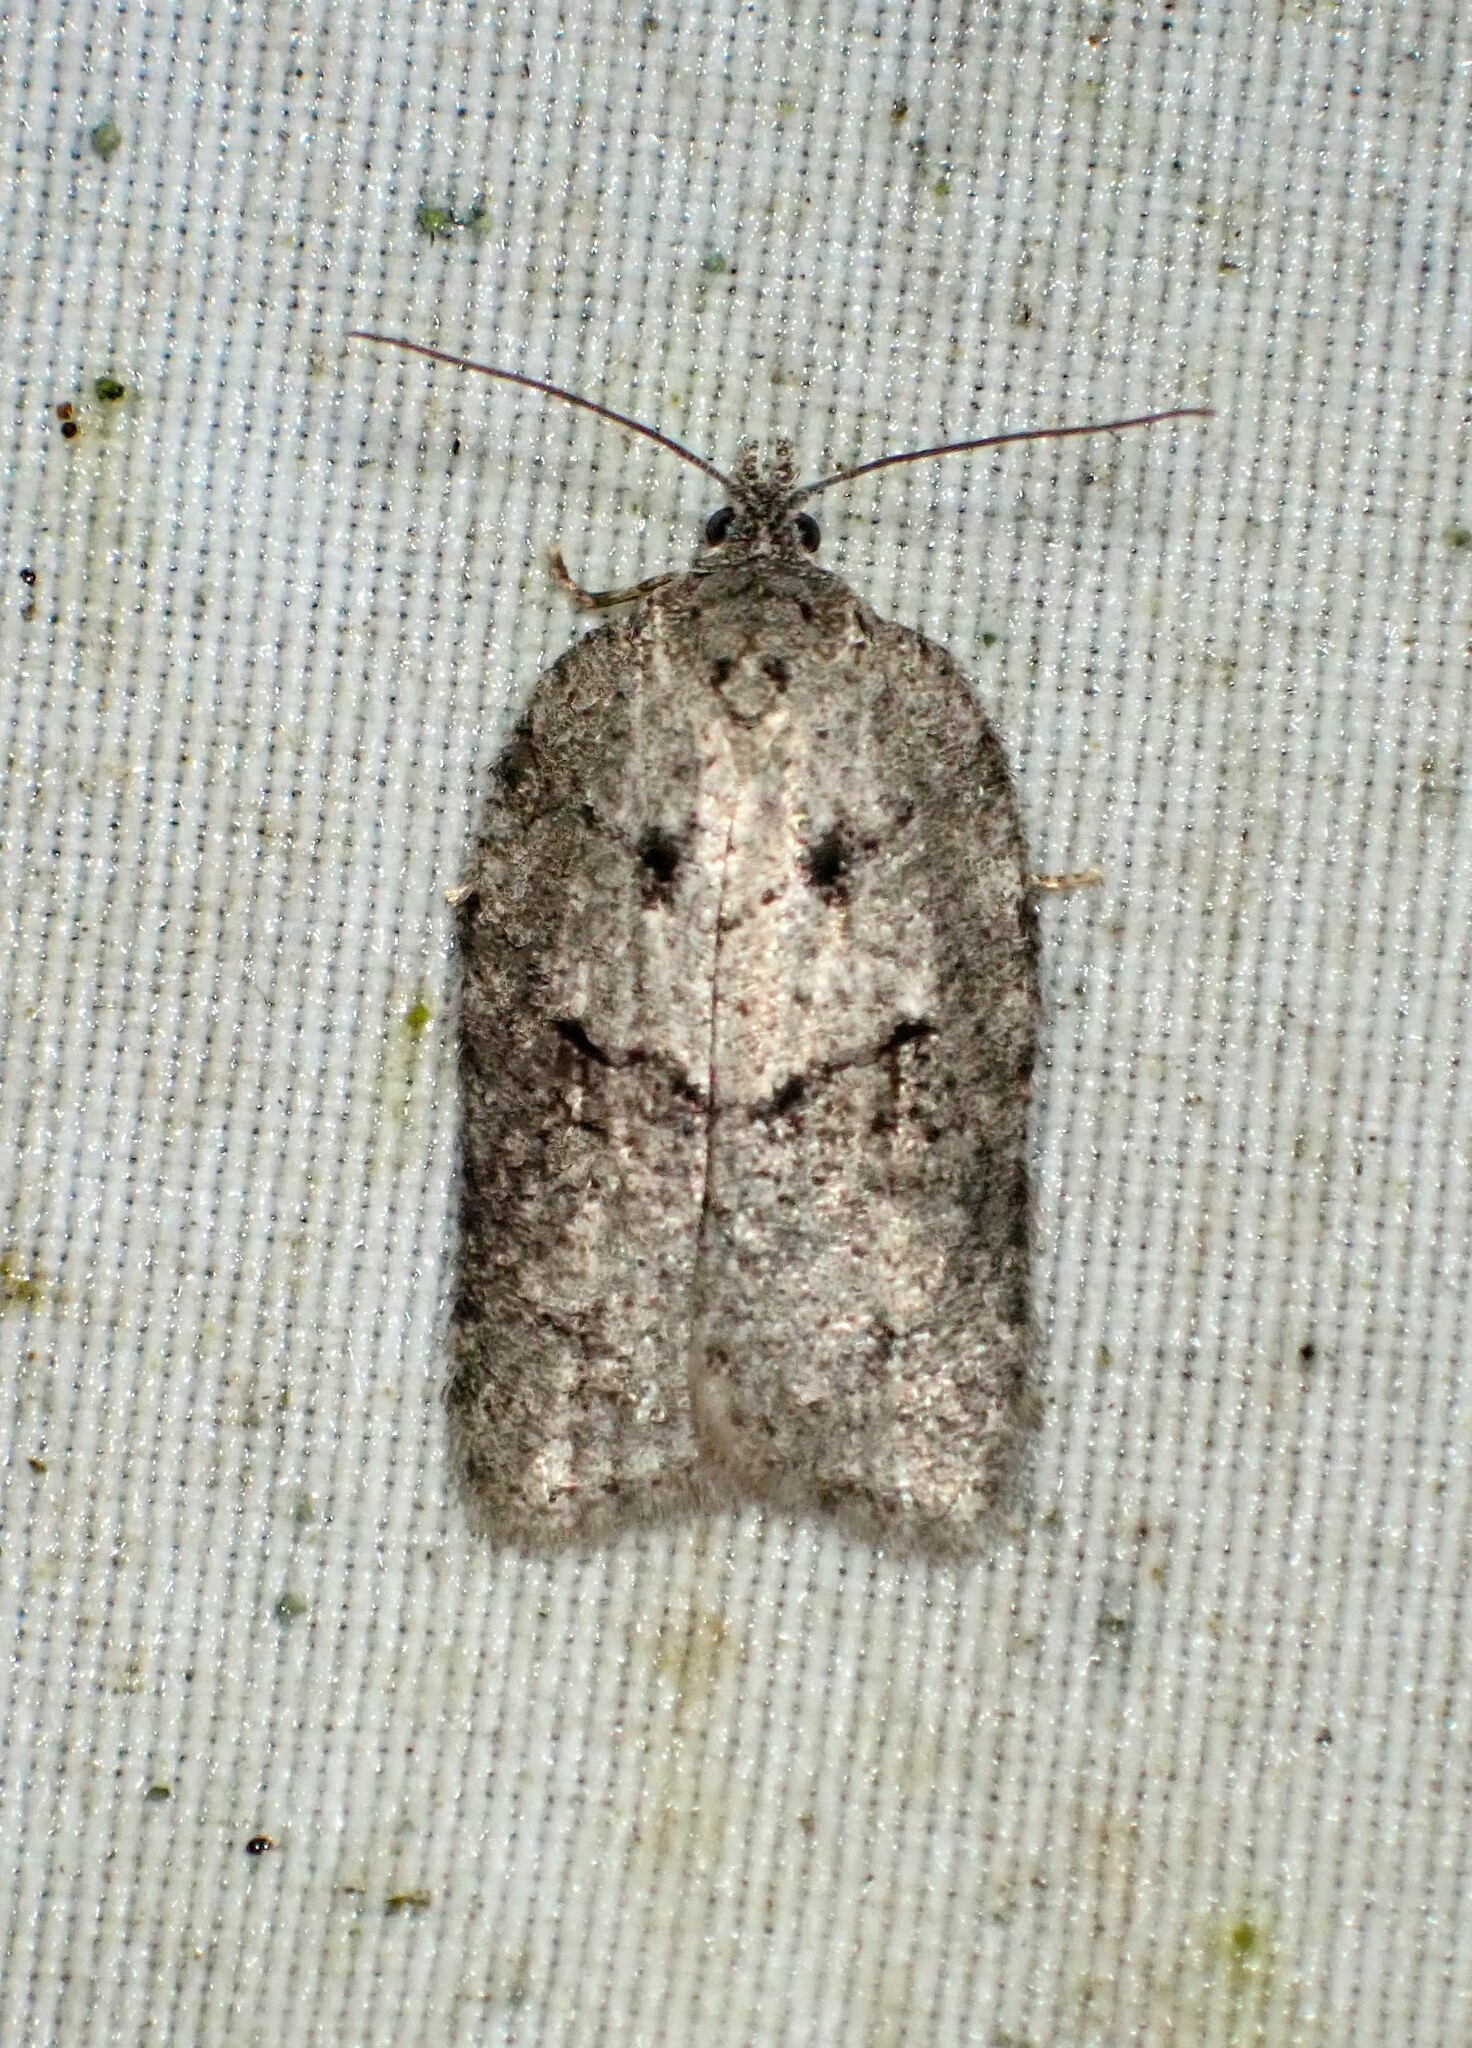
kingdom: Animalia
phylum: Arthropoda
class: Insecta
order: Lepidoptera
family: Tortricidae
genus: Acleris
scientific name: Acleris nigrolinea
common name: Black-lined acleris
